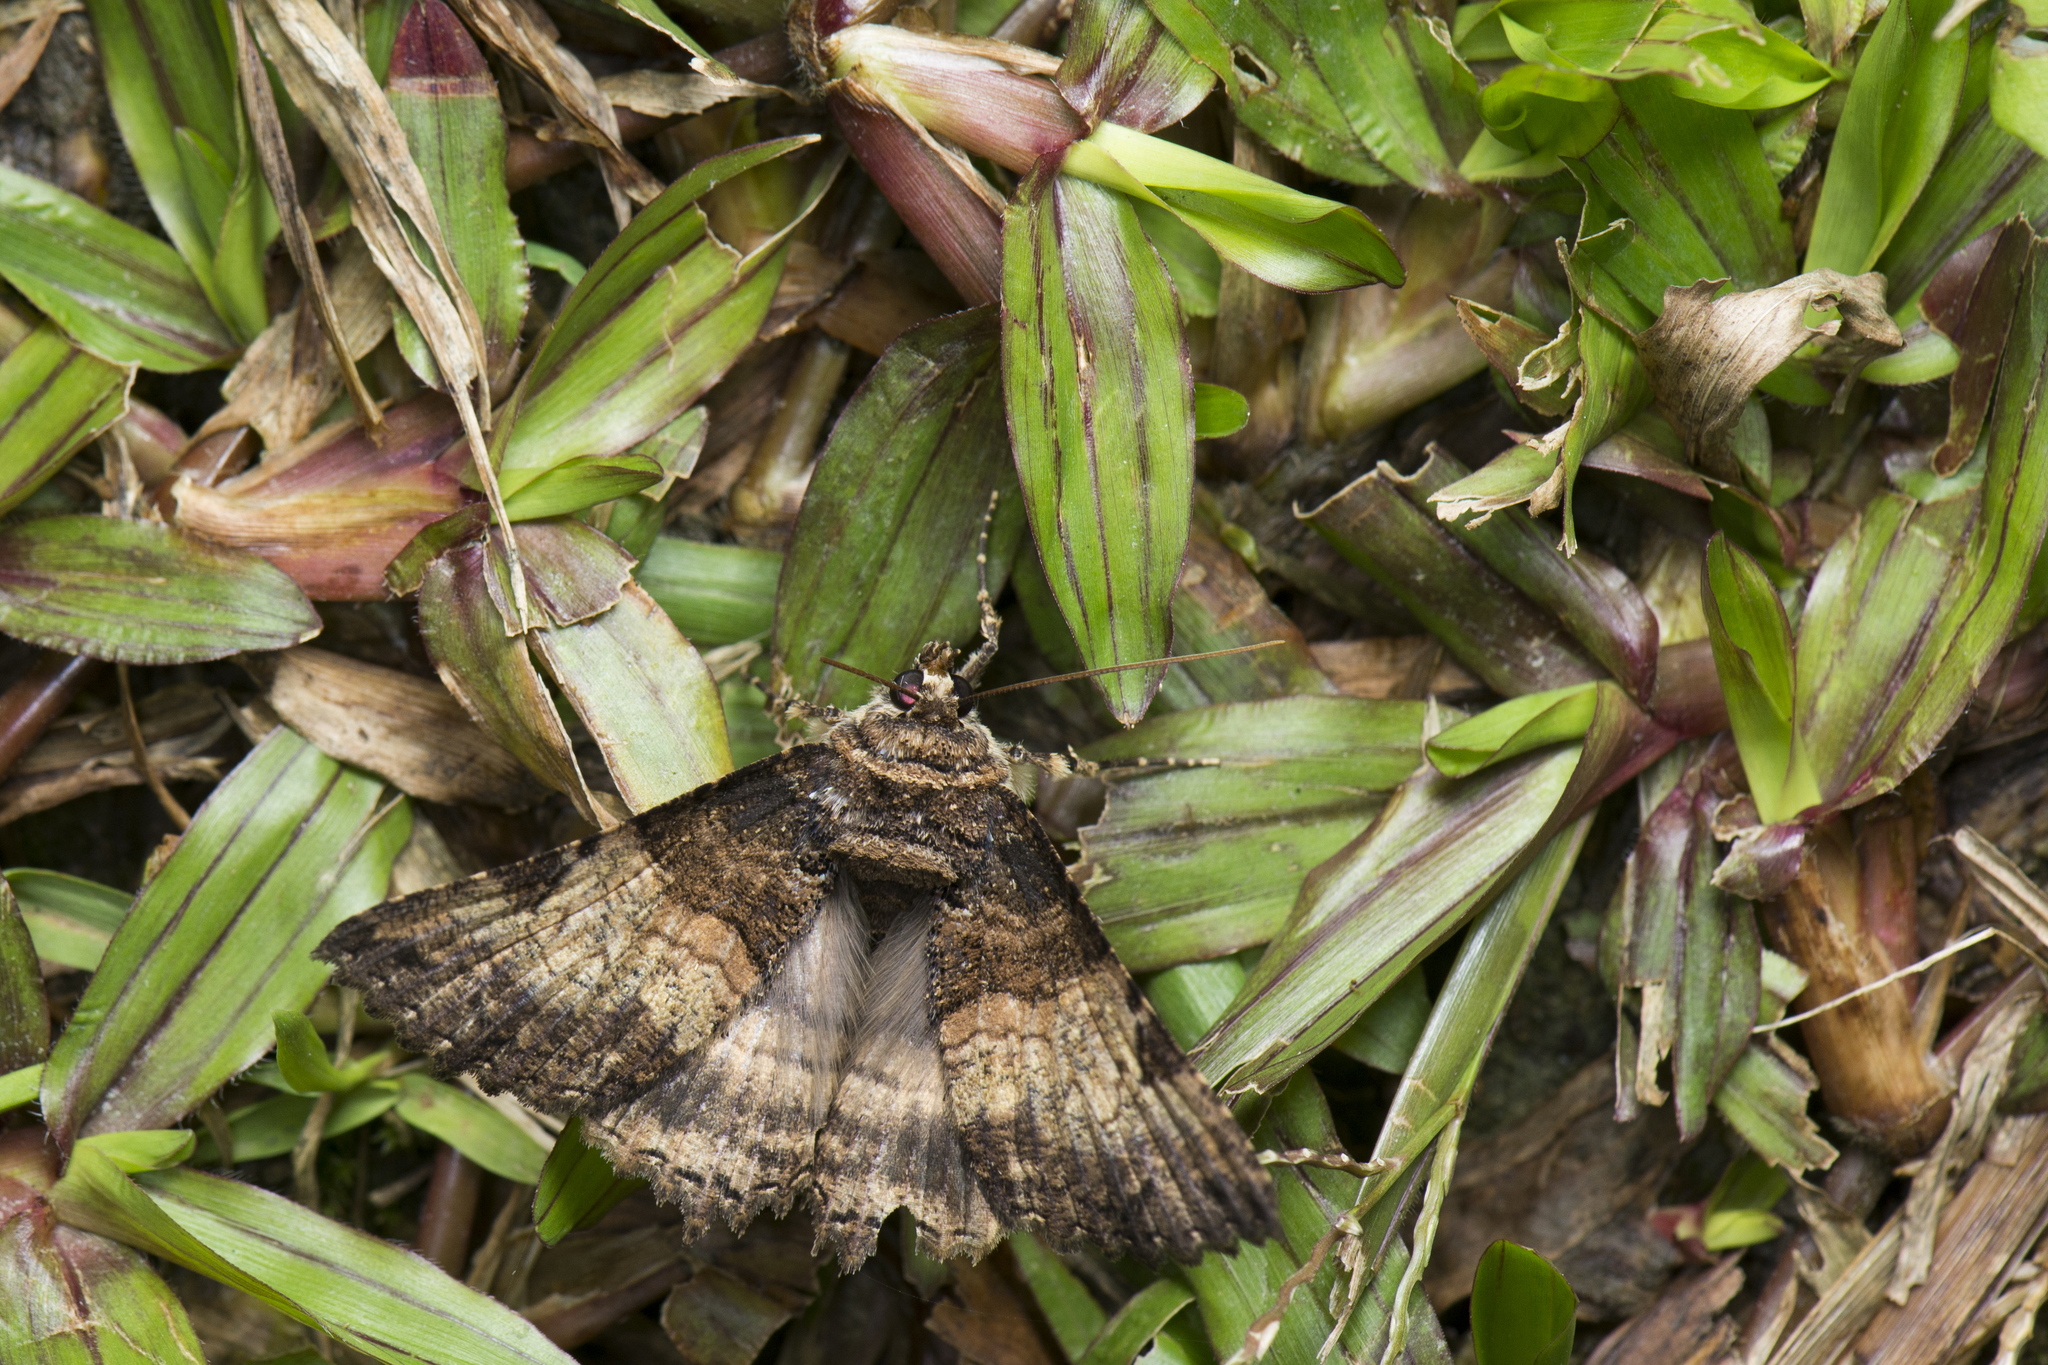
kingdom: Animalia
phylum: Arthropoda
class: Insecta
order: Lepidoptera
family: Erebidae
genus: Daddala
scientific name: Daddala lucilla
